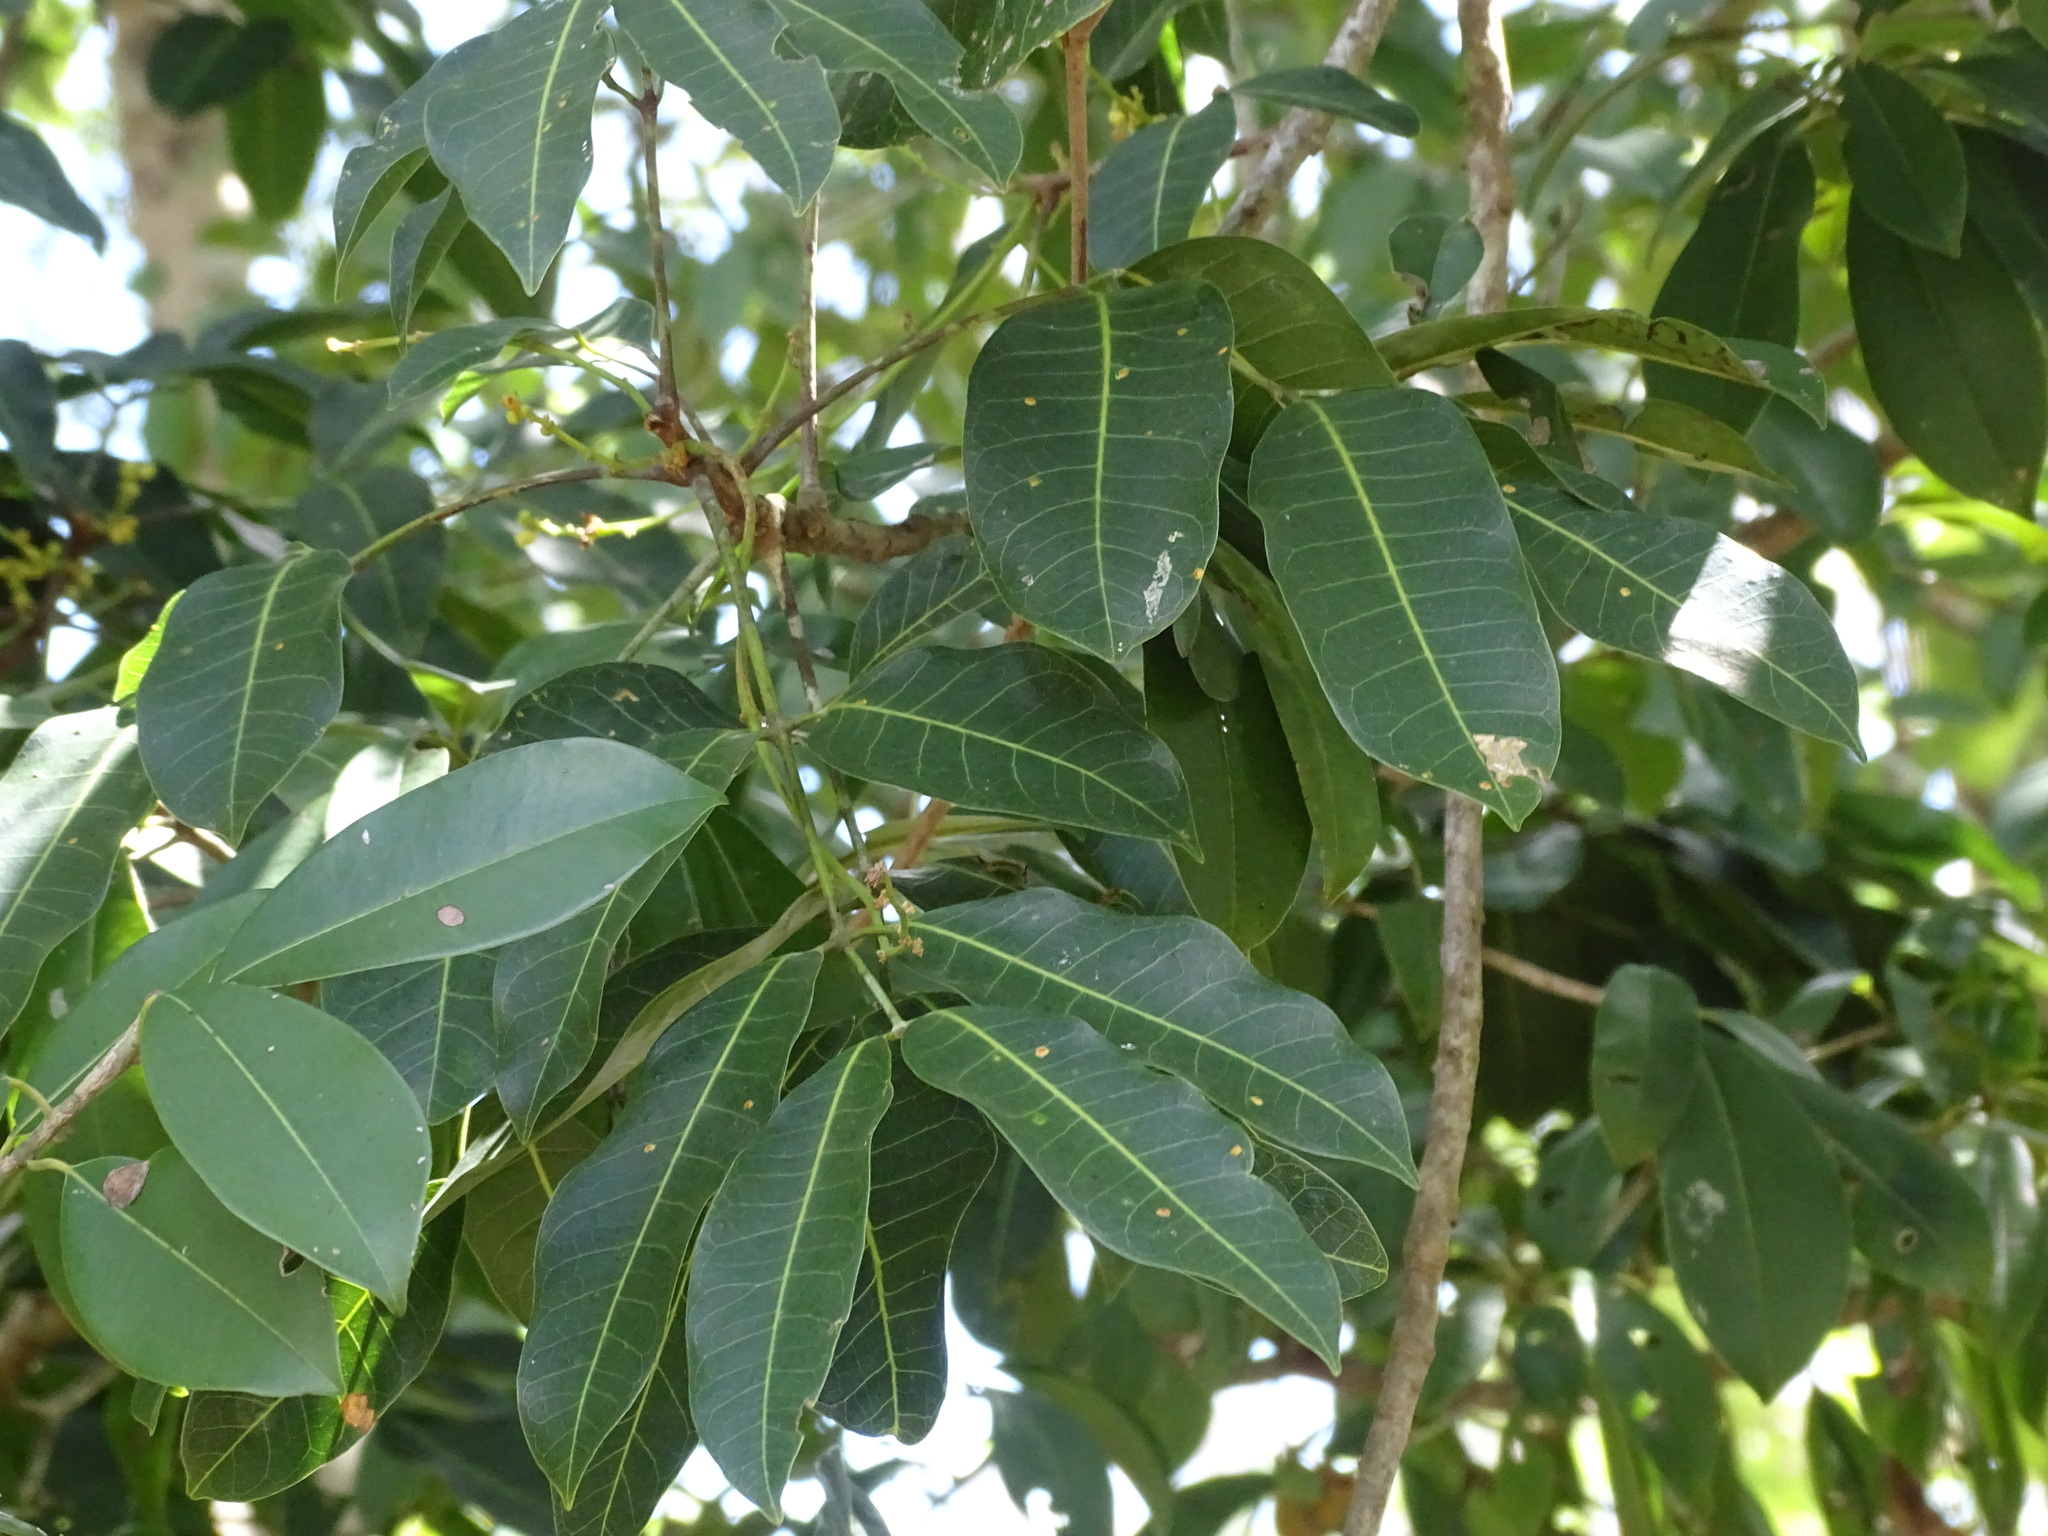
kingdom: Plantae
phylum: Tracheophyta
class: Magnoliopsida
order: Sapindales
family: Burseraceae
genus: Protium
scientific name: Protium copal
